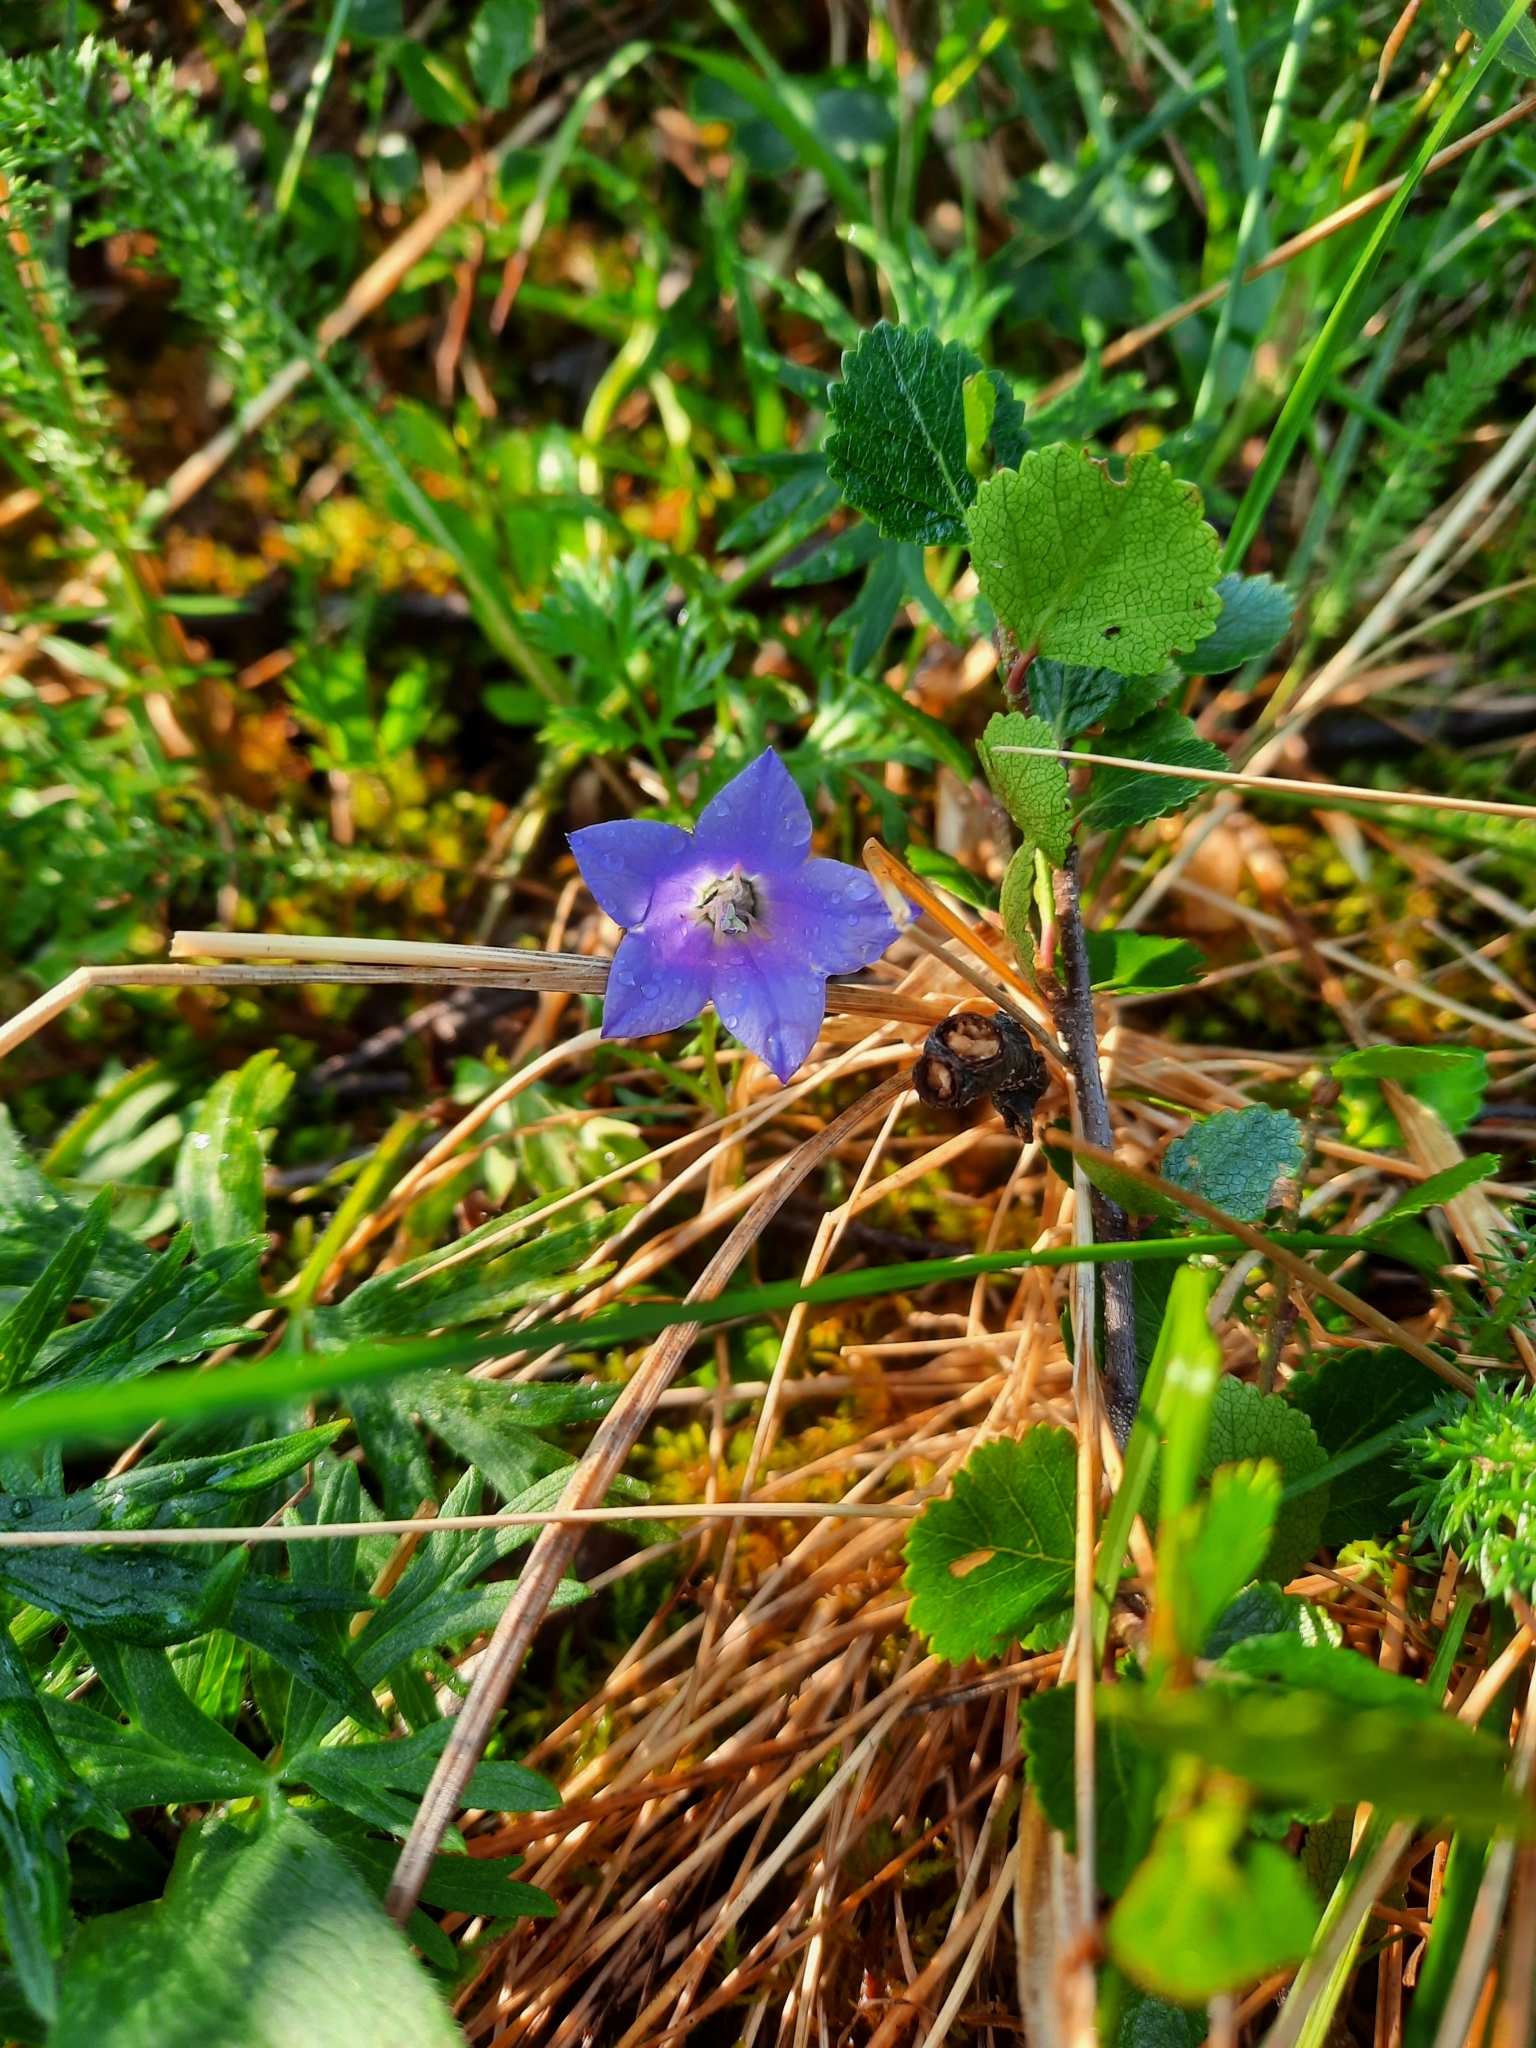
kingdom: Plantae
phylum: Tracheophyta
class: Magnoliopsida
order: Asterales
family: Campanulaceae
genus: Campanula
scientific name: Campanula lasiocarpa
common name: Mountain harebell
